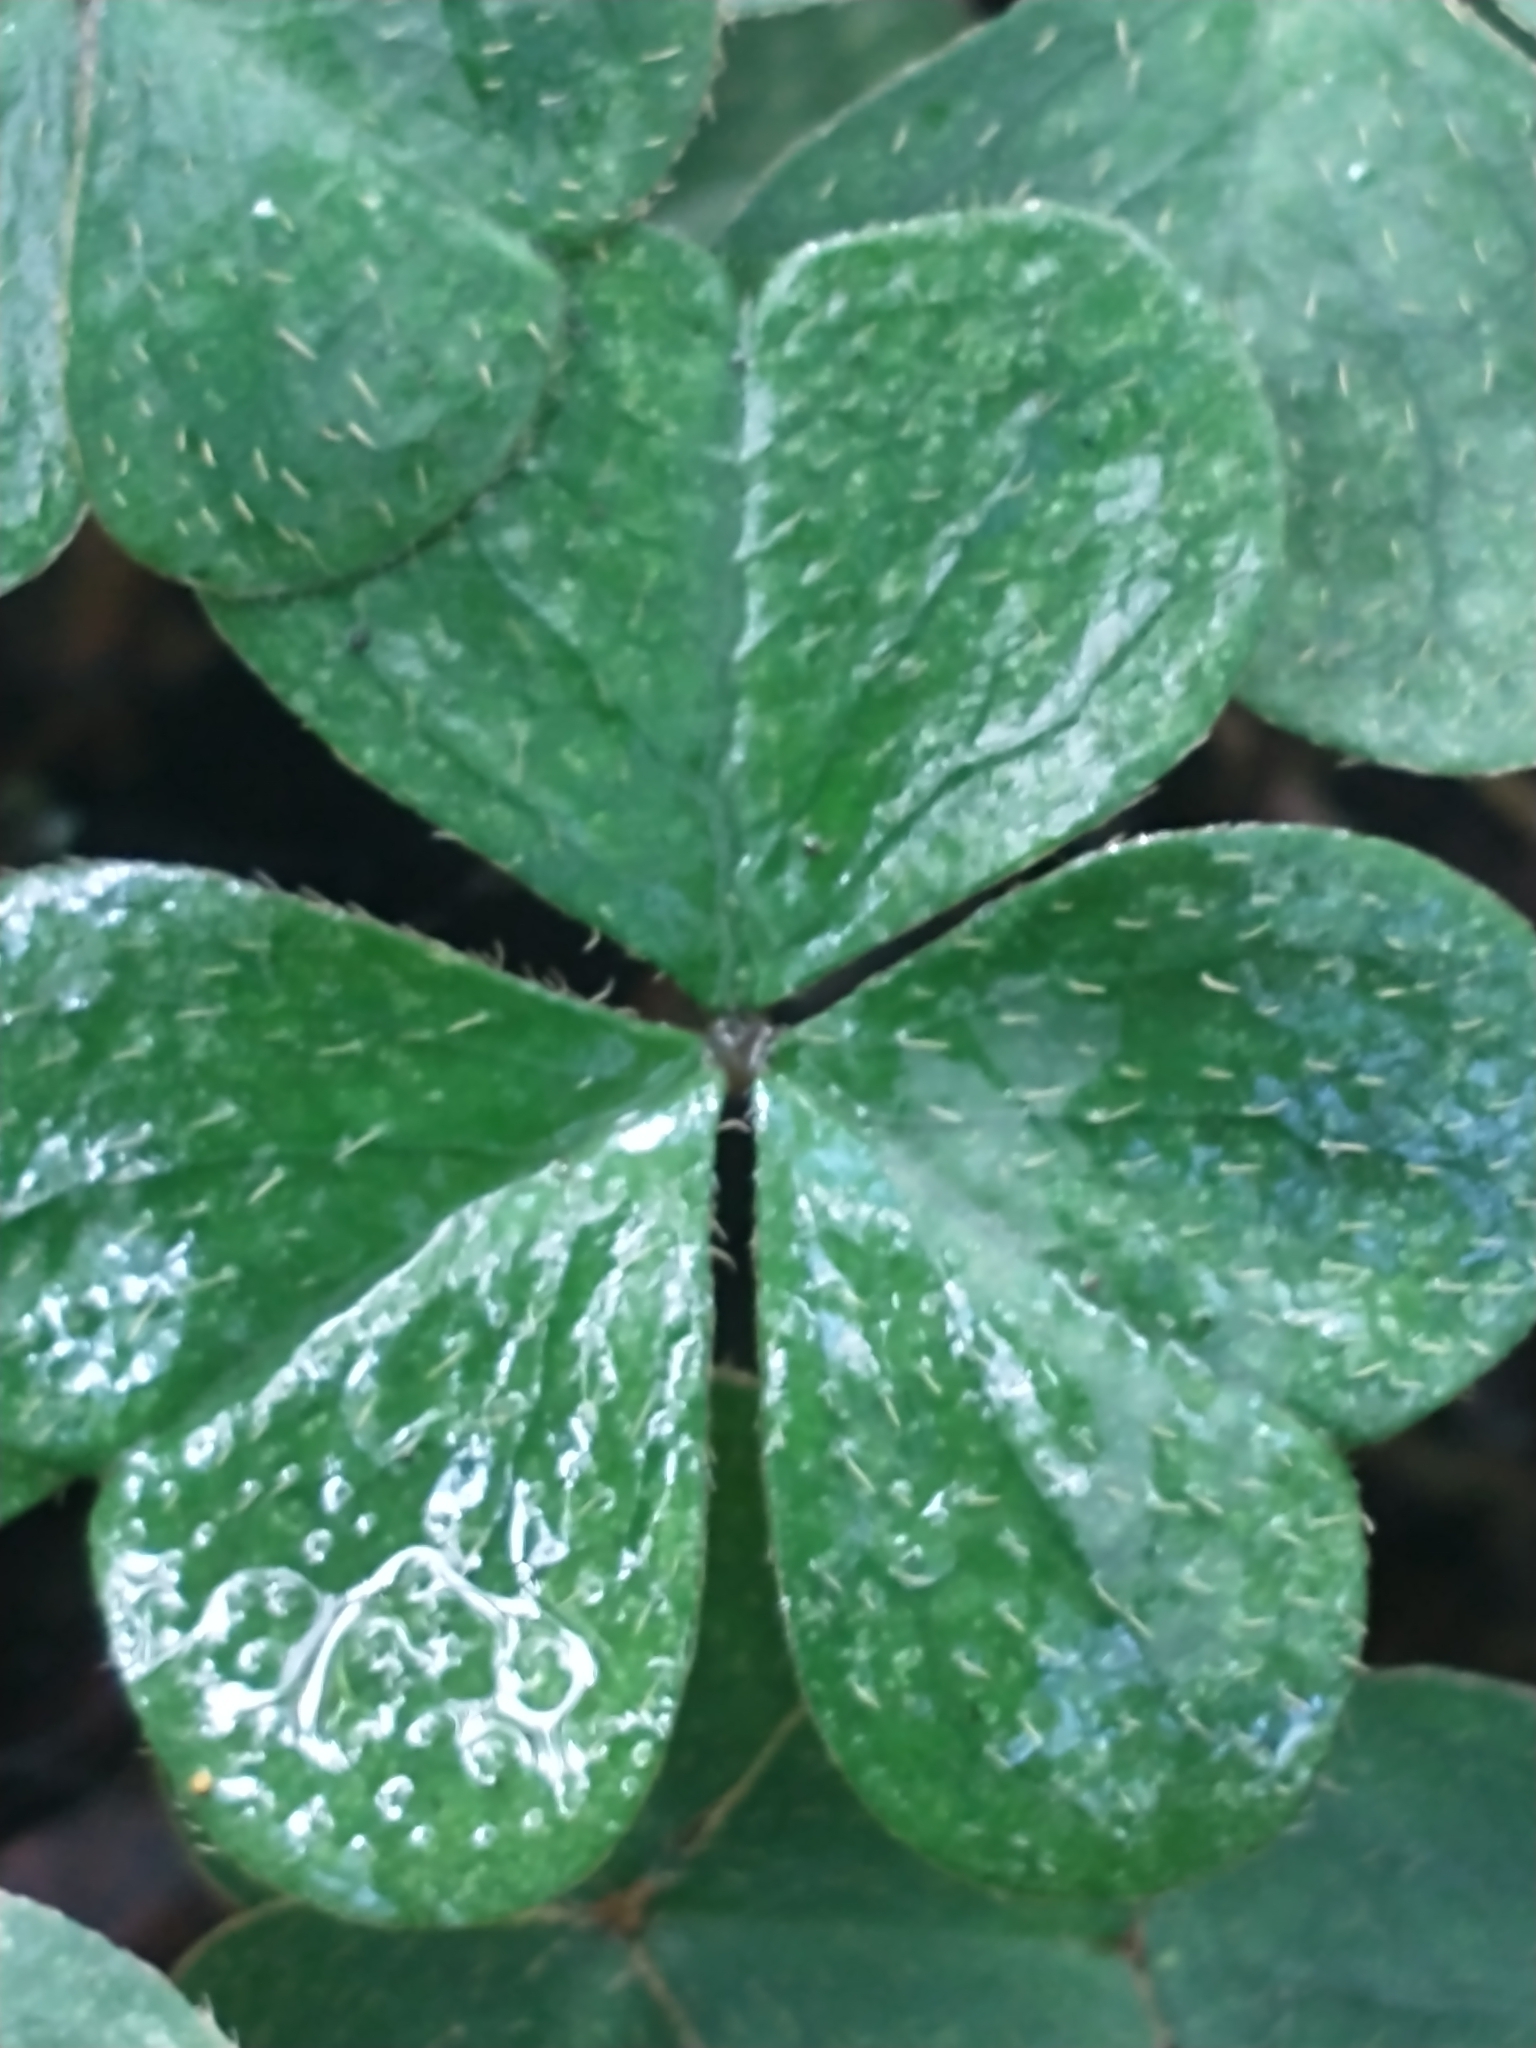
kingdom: Plantae
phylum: Tracheophyta
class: Magnoliopsida
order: Oxalidales
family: Oxalidaceae
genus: Oxalis
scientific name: Oxalis montana
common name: American wood-sorrel
